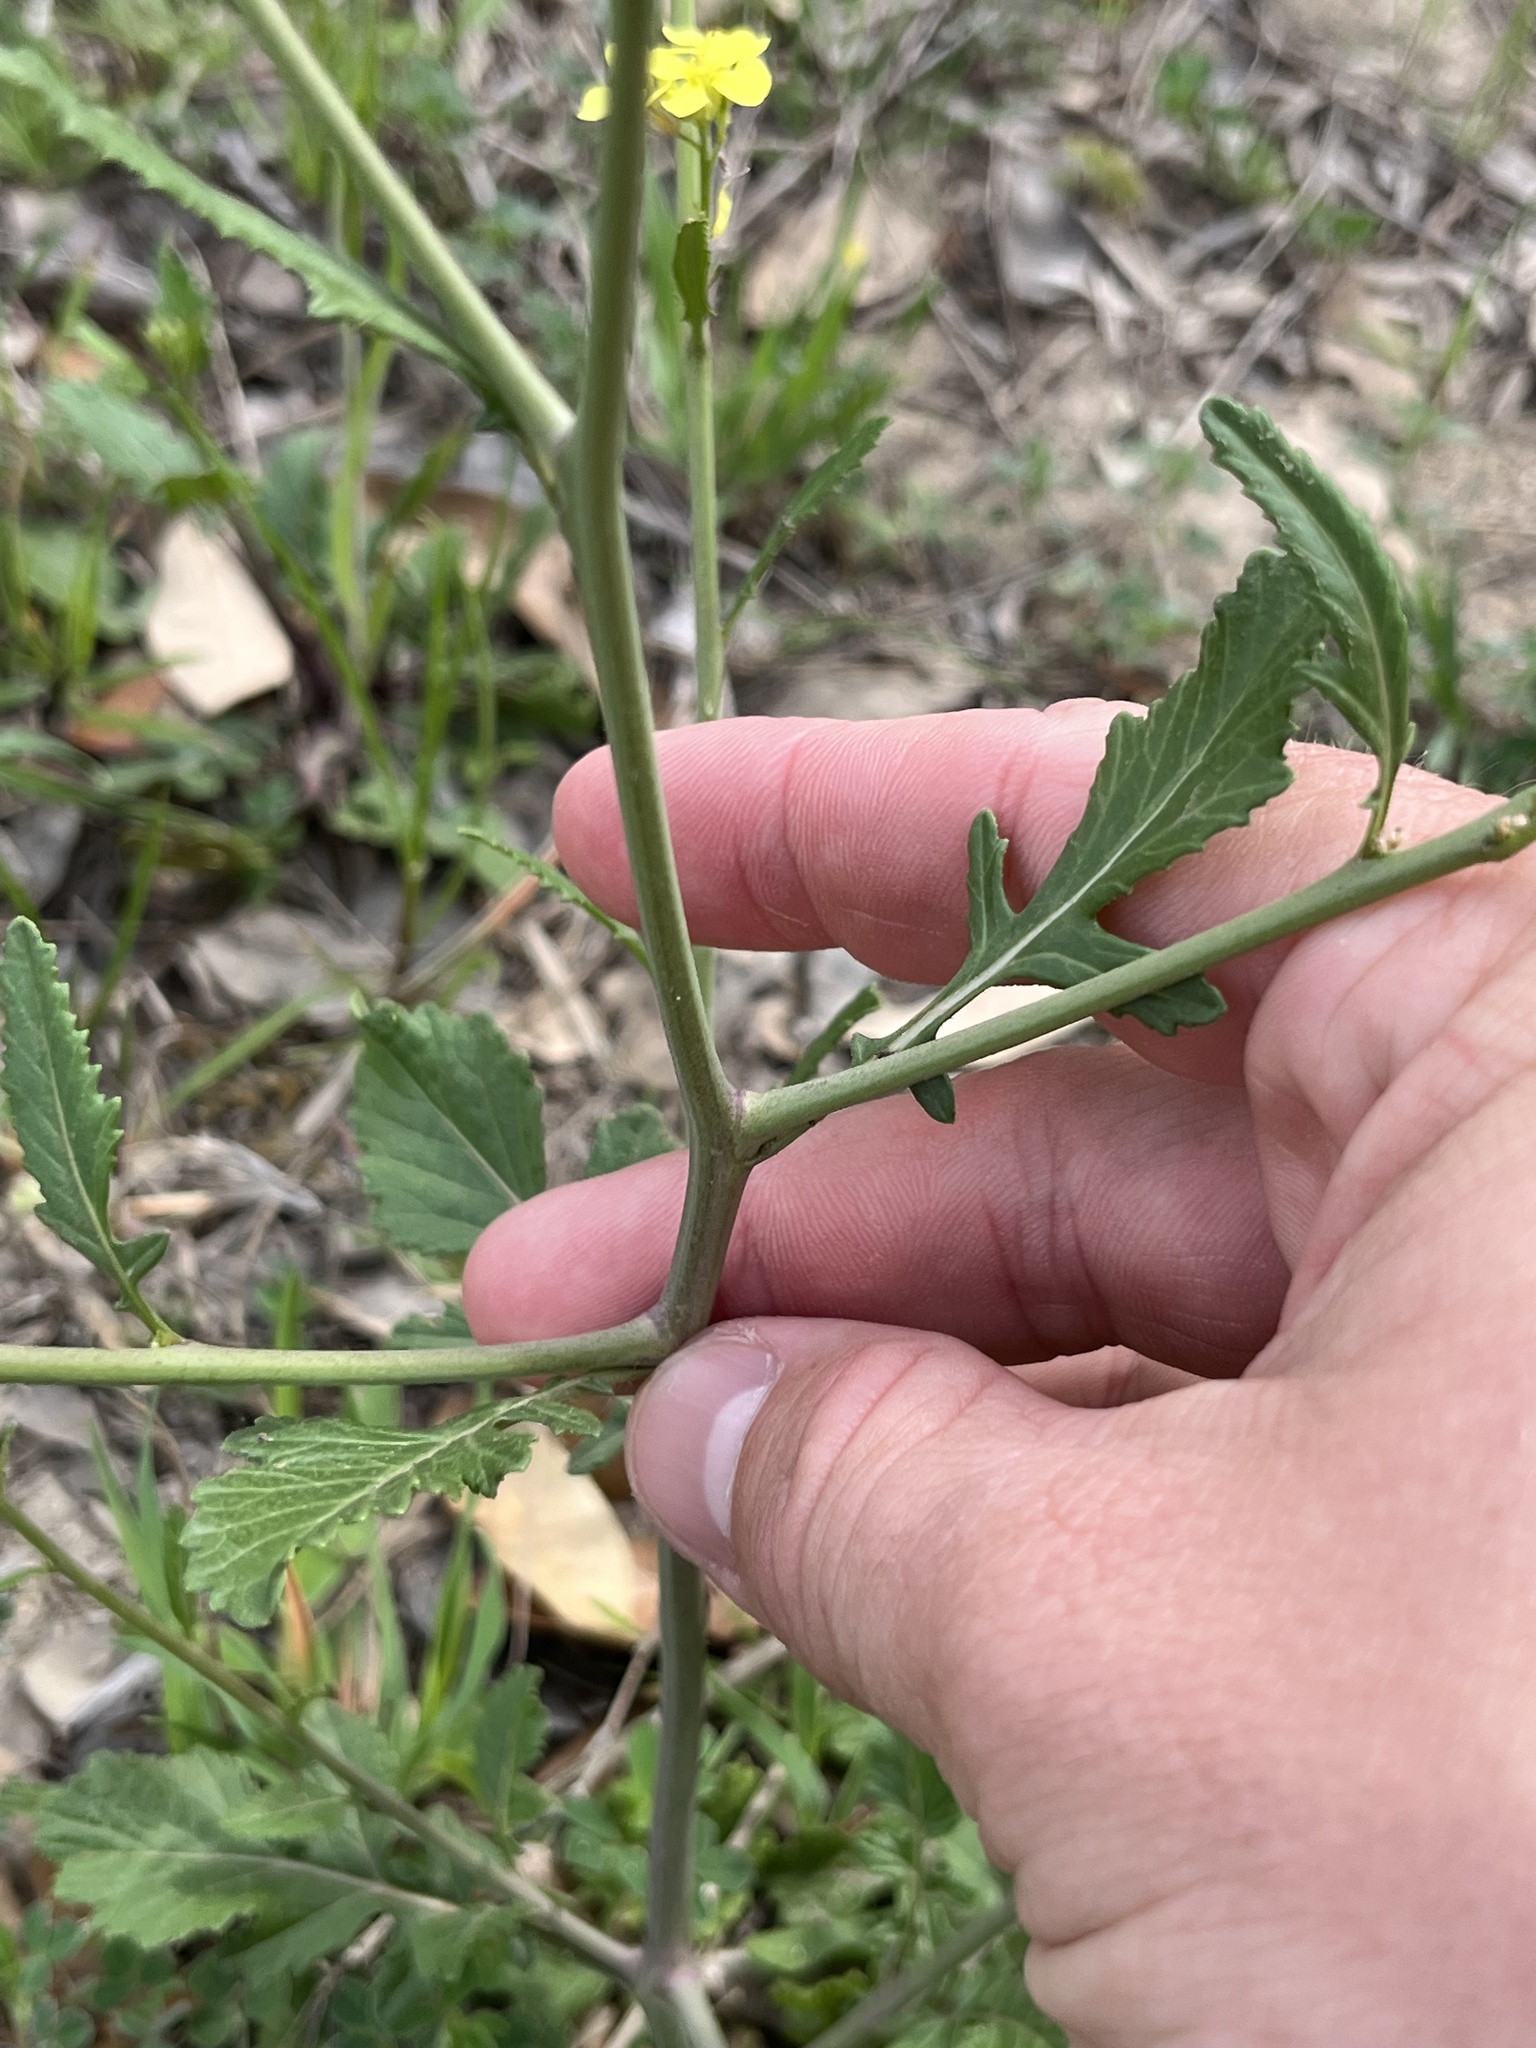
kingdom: Plantae
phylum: Tracheophyta
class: Magnoliopsida
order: Brassicales
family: Brassicaceae
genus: Rapistrum
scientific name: Rapistrum rugosum
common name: Annual bastardcabbage
